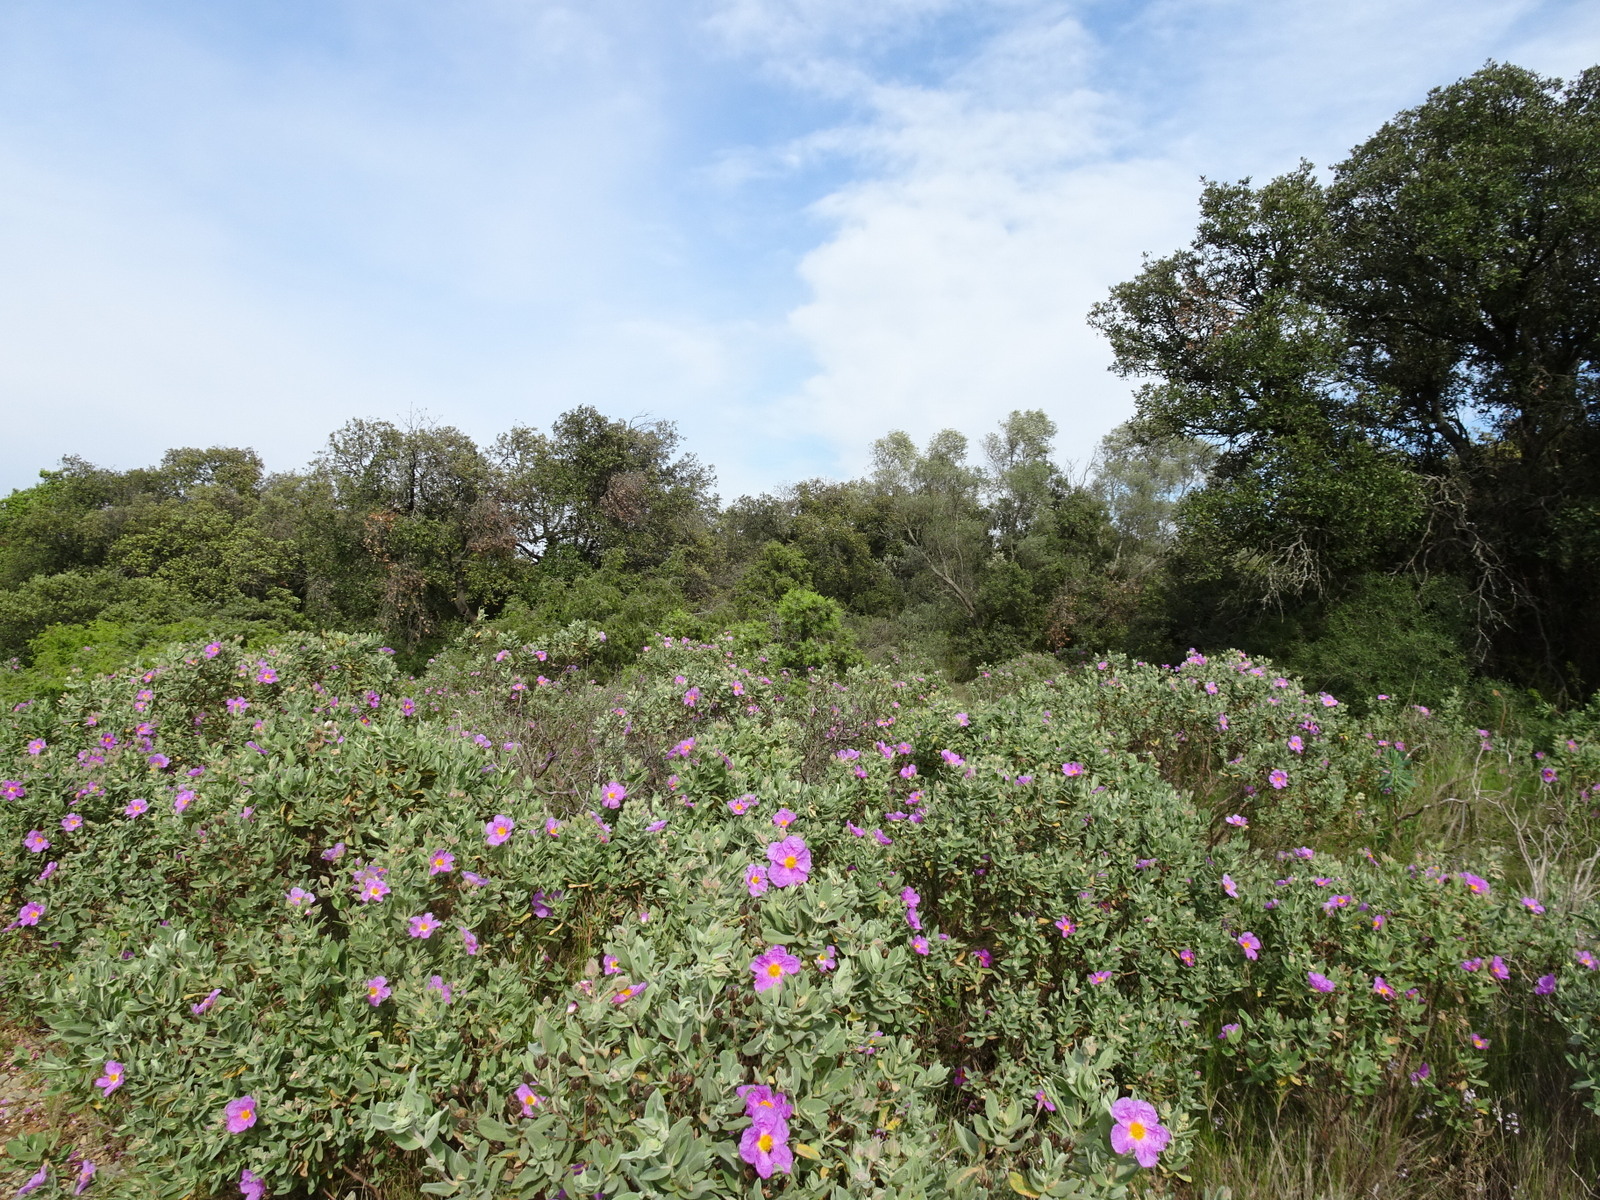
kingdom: Plantae
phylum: Tracheophyta
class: Magnoliopsida
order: Malvales
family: Cistaceae
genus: Cistus
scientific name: Cistus albidus
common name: White-leaf rock-rose
